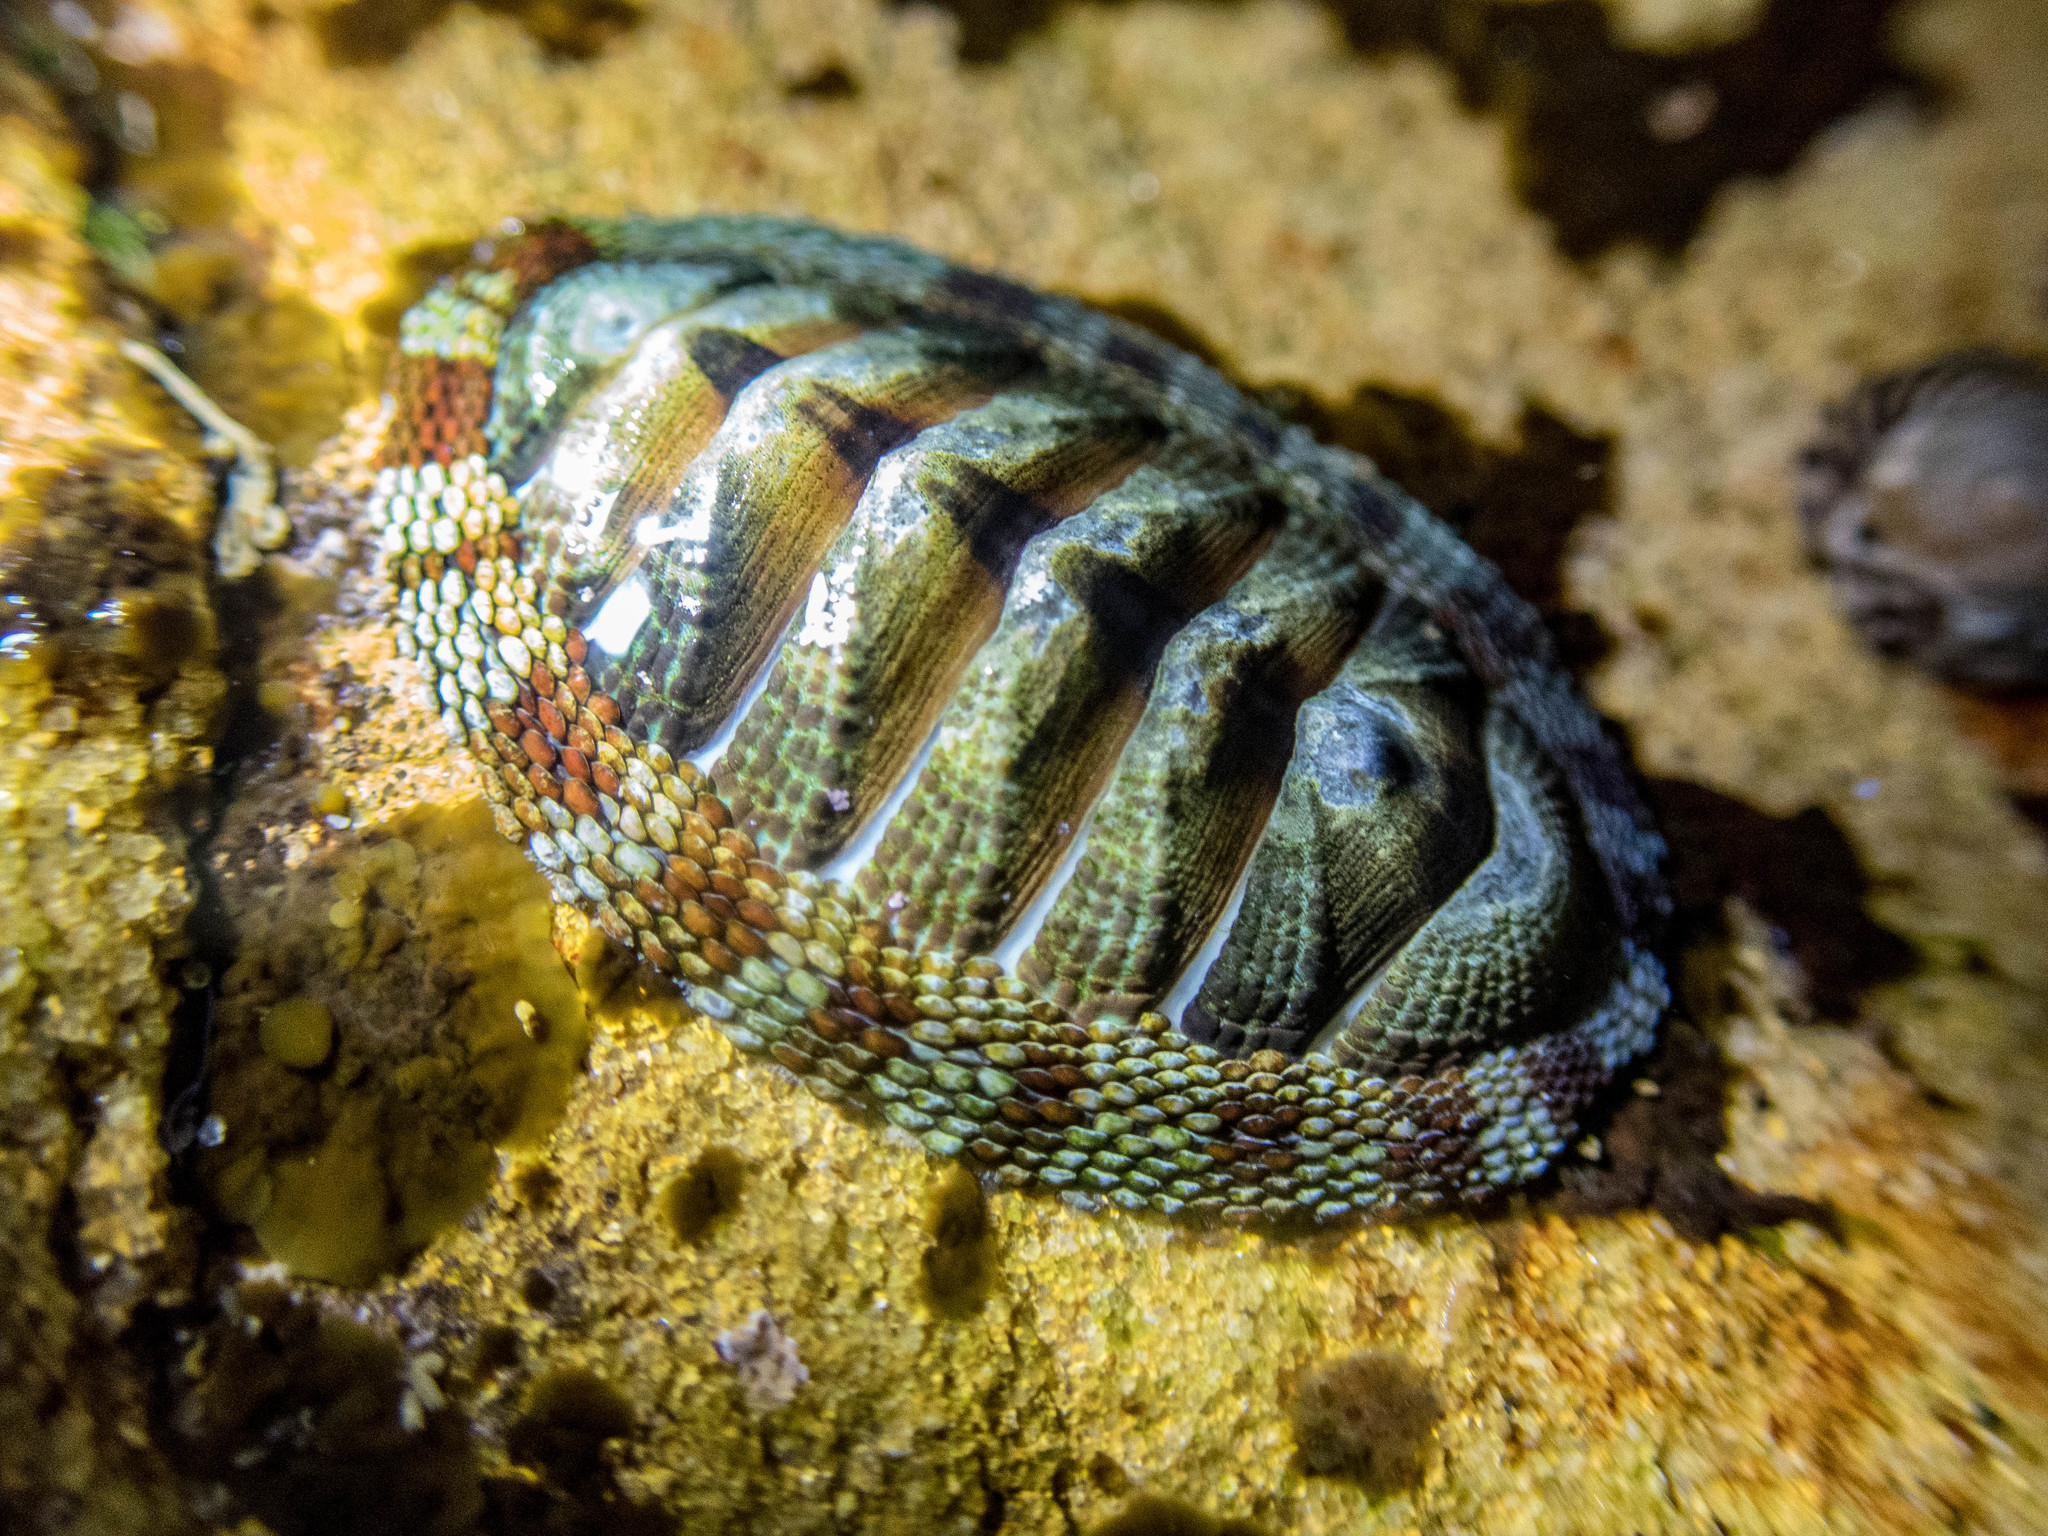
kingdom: Animalia
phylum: Mollusca
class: Polyplacophora
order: Chitonida
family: Chitonidae
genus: Sypharochiton
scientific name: Sypharochiton pelliserpentis
